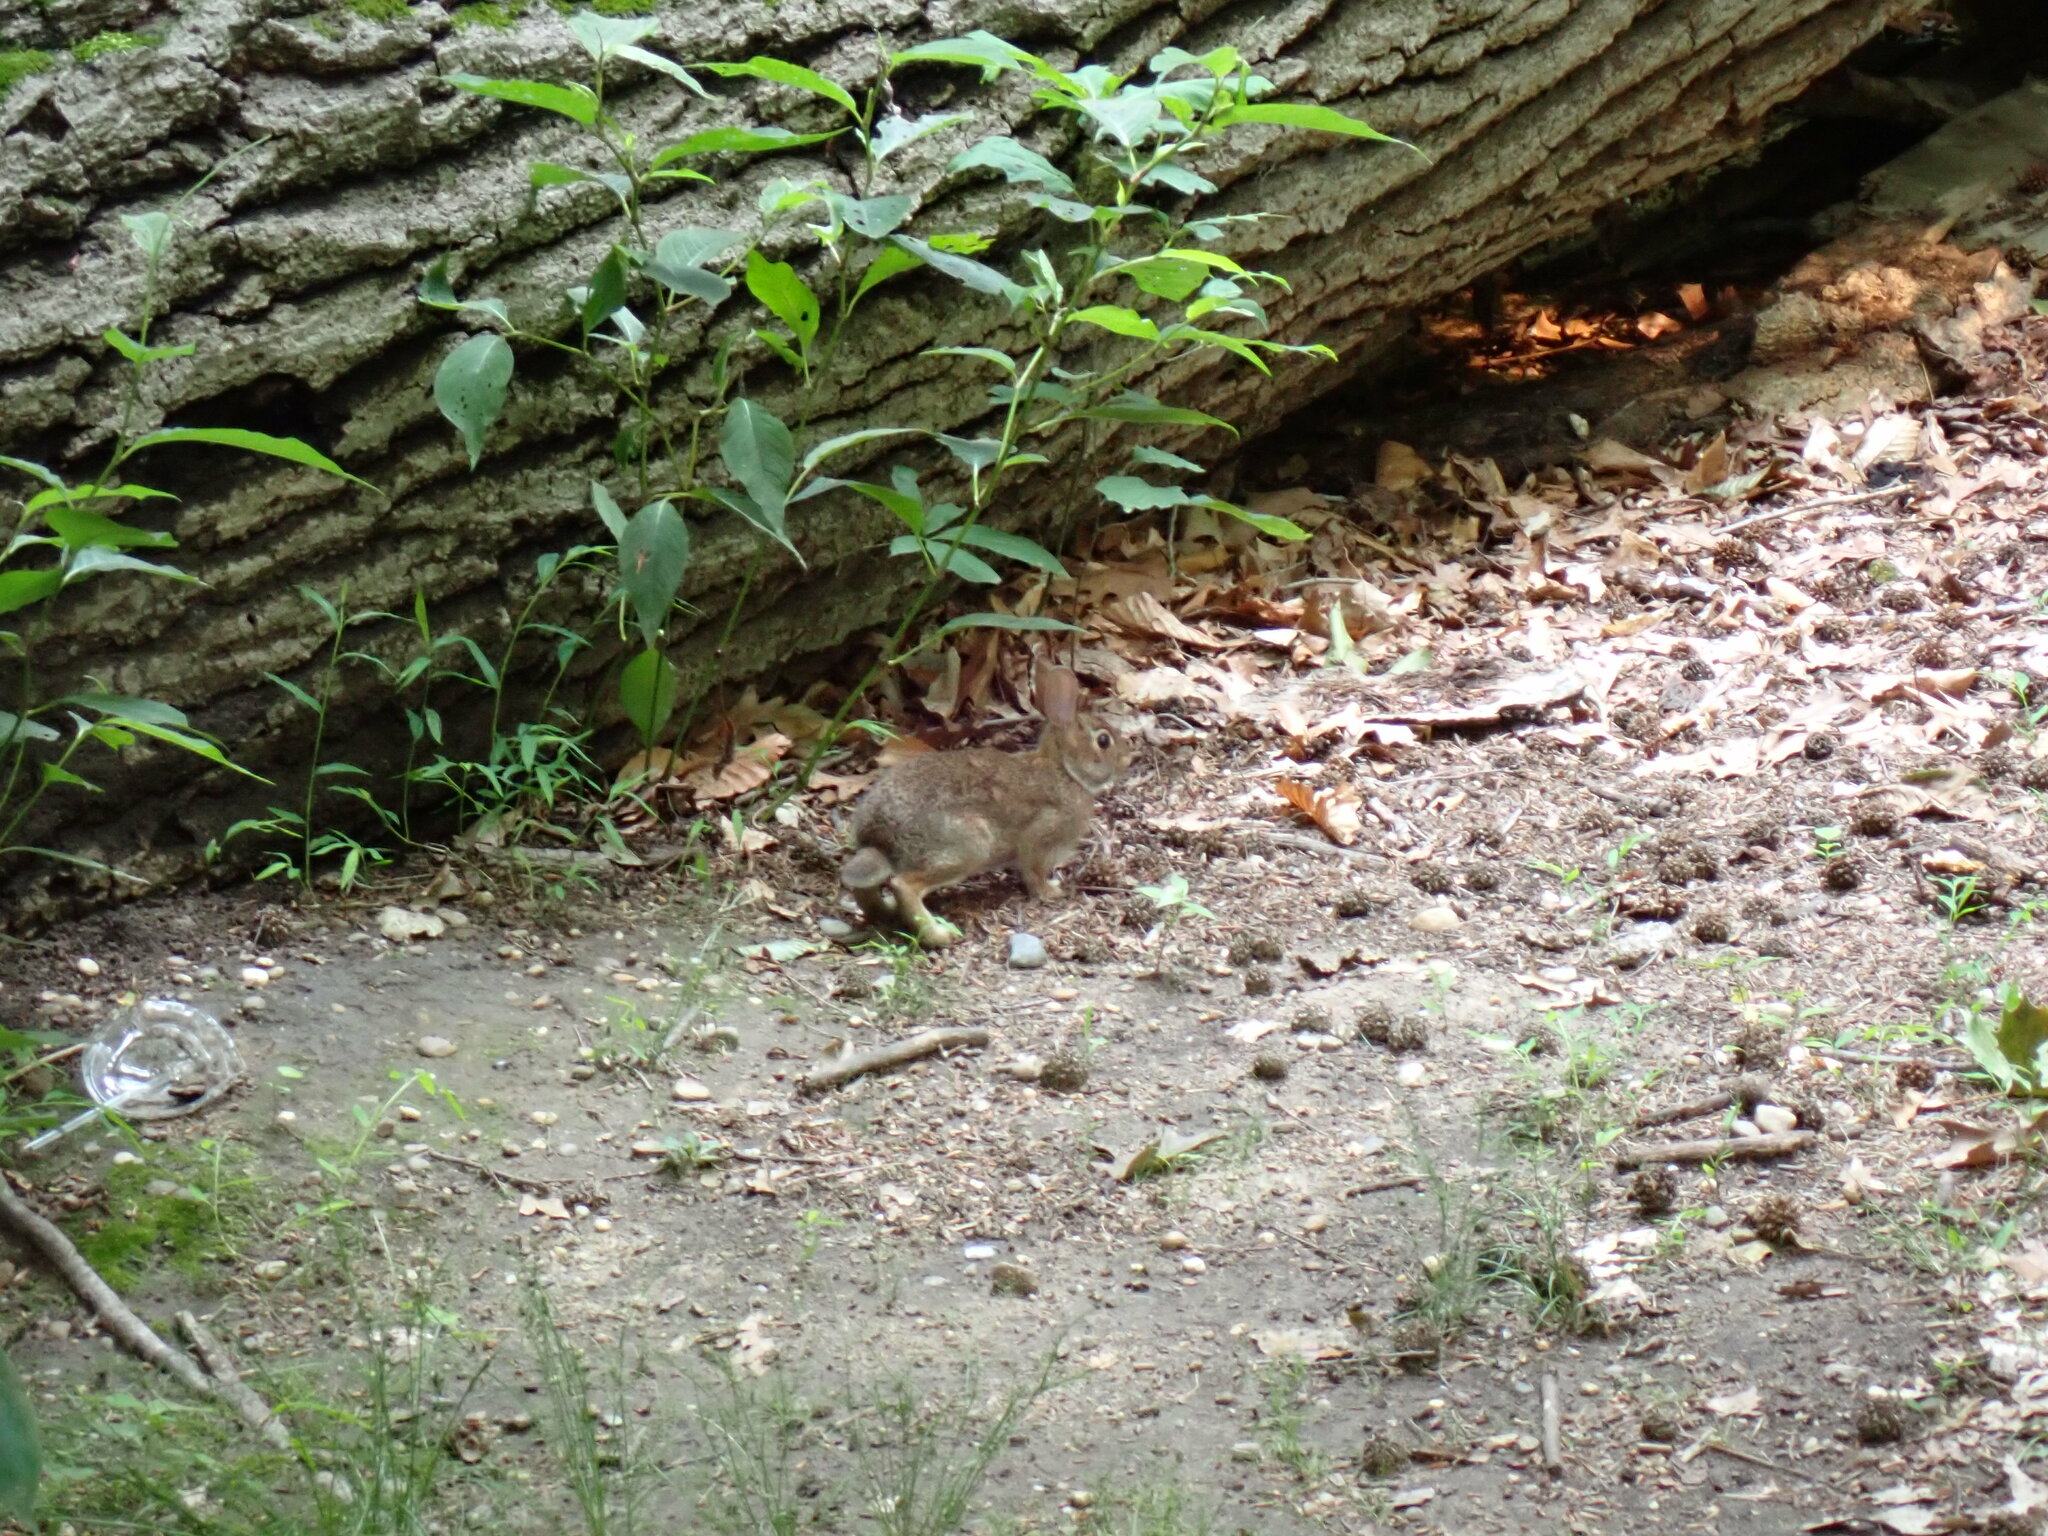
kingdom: Animalia
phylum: Chordata
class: Mammalia
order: Lagomorpha
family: Leporidae
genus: Sylvilagus
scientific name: Sylvilagus floridanus
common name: Eastern cottontail
